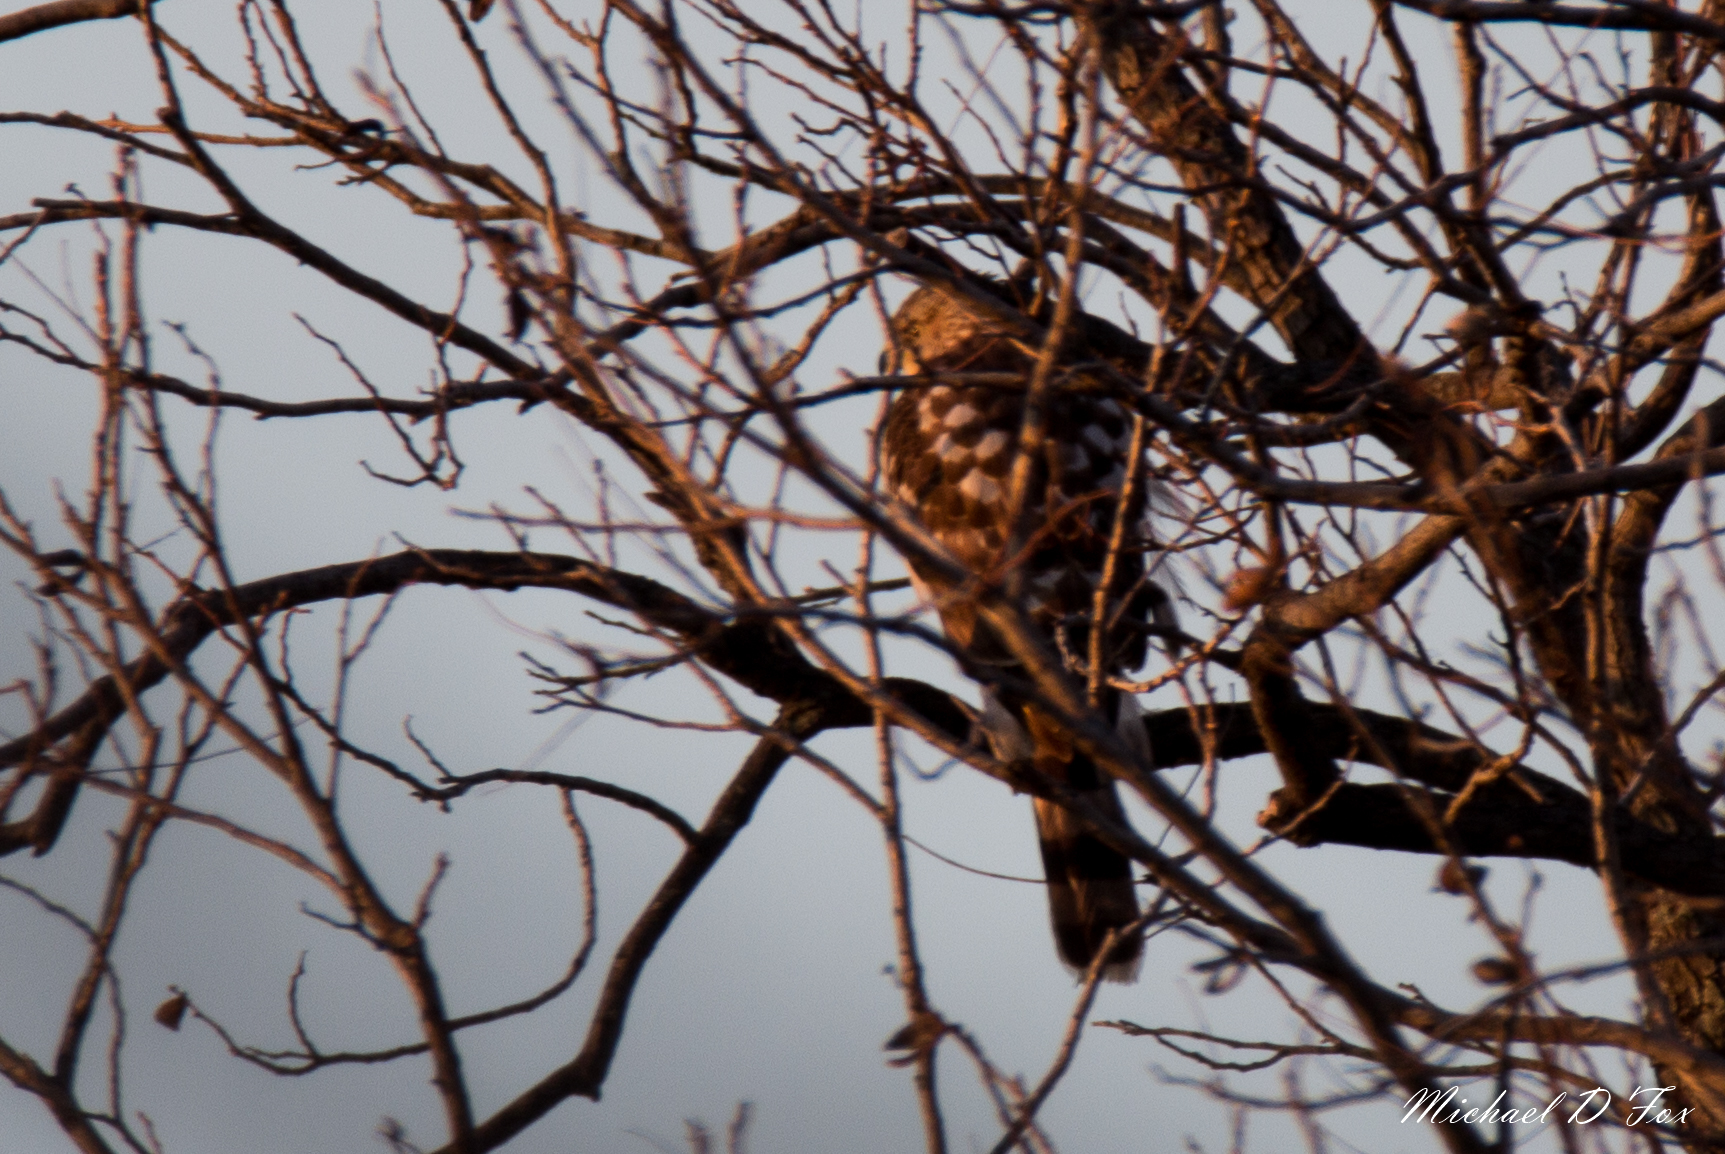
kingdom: Animalia
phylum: Chordata
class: Aves
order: Accipitriformes
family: Accipitridae
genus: Accipiter
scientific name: Accipiter cooperii
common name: Cooper's hawk
